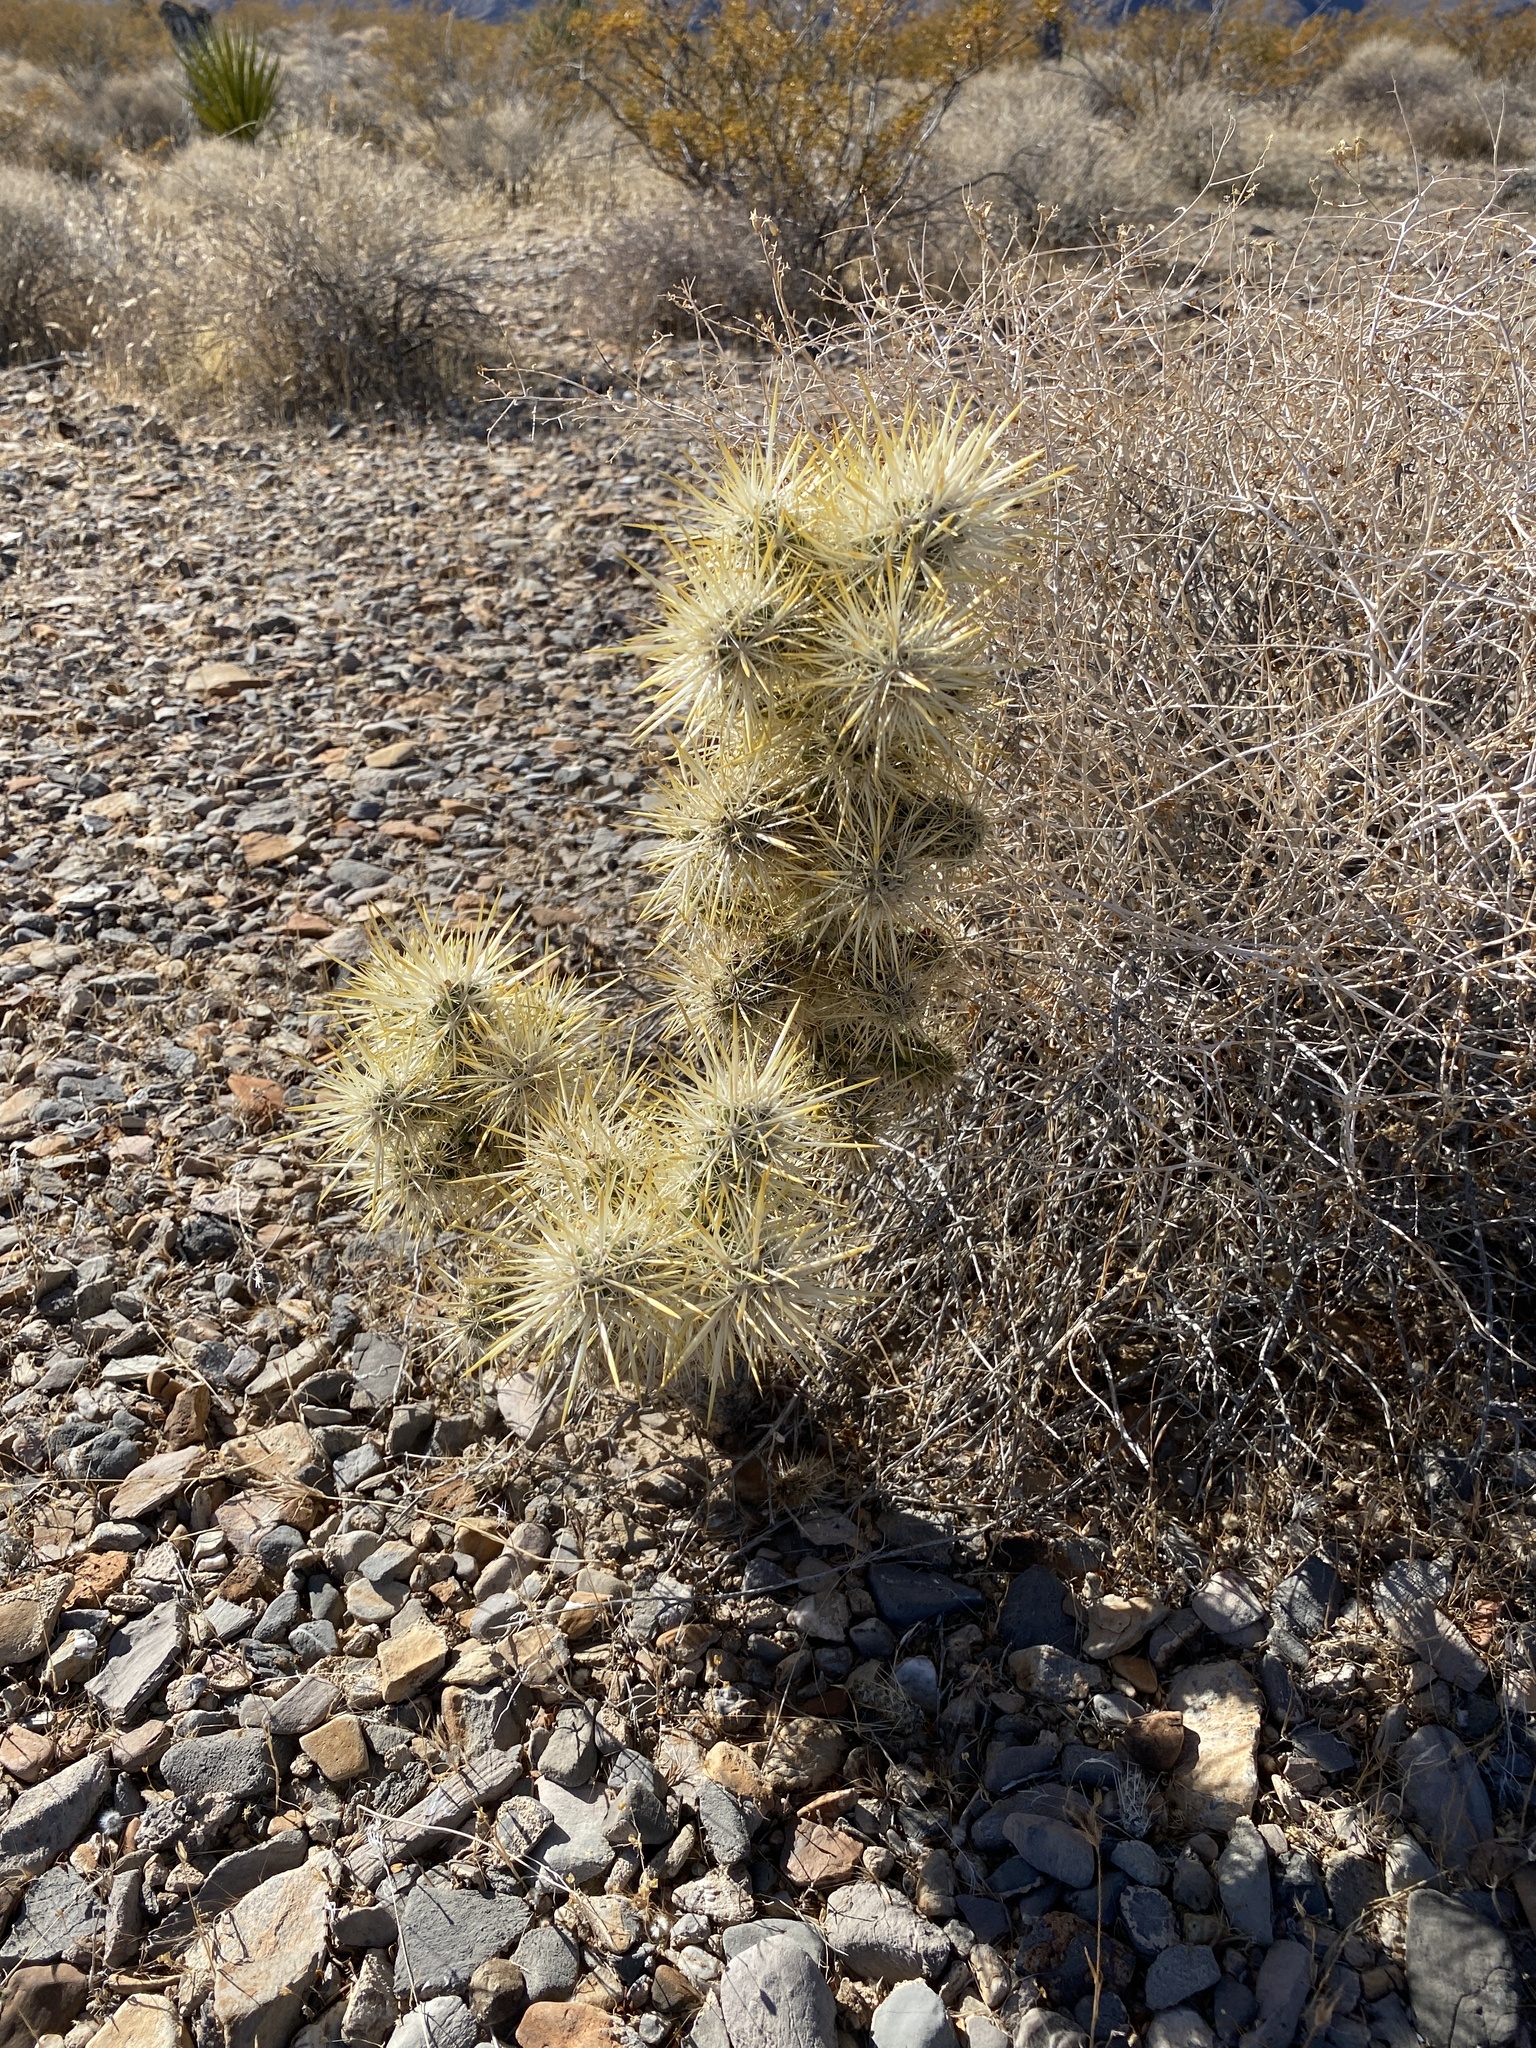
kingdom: Plantae
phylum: Tracheophyta
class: Magnoliopsida
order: Caryophyllales
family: Cactaceae
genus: Cylindropuntia
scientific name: Cylindropuntia echinocarpa
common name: Ground cholla
